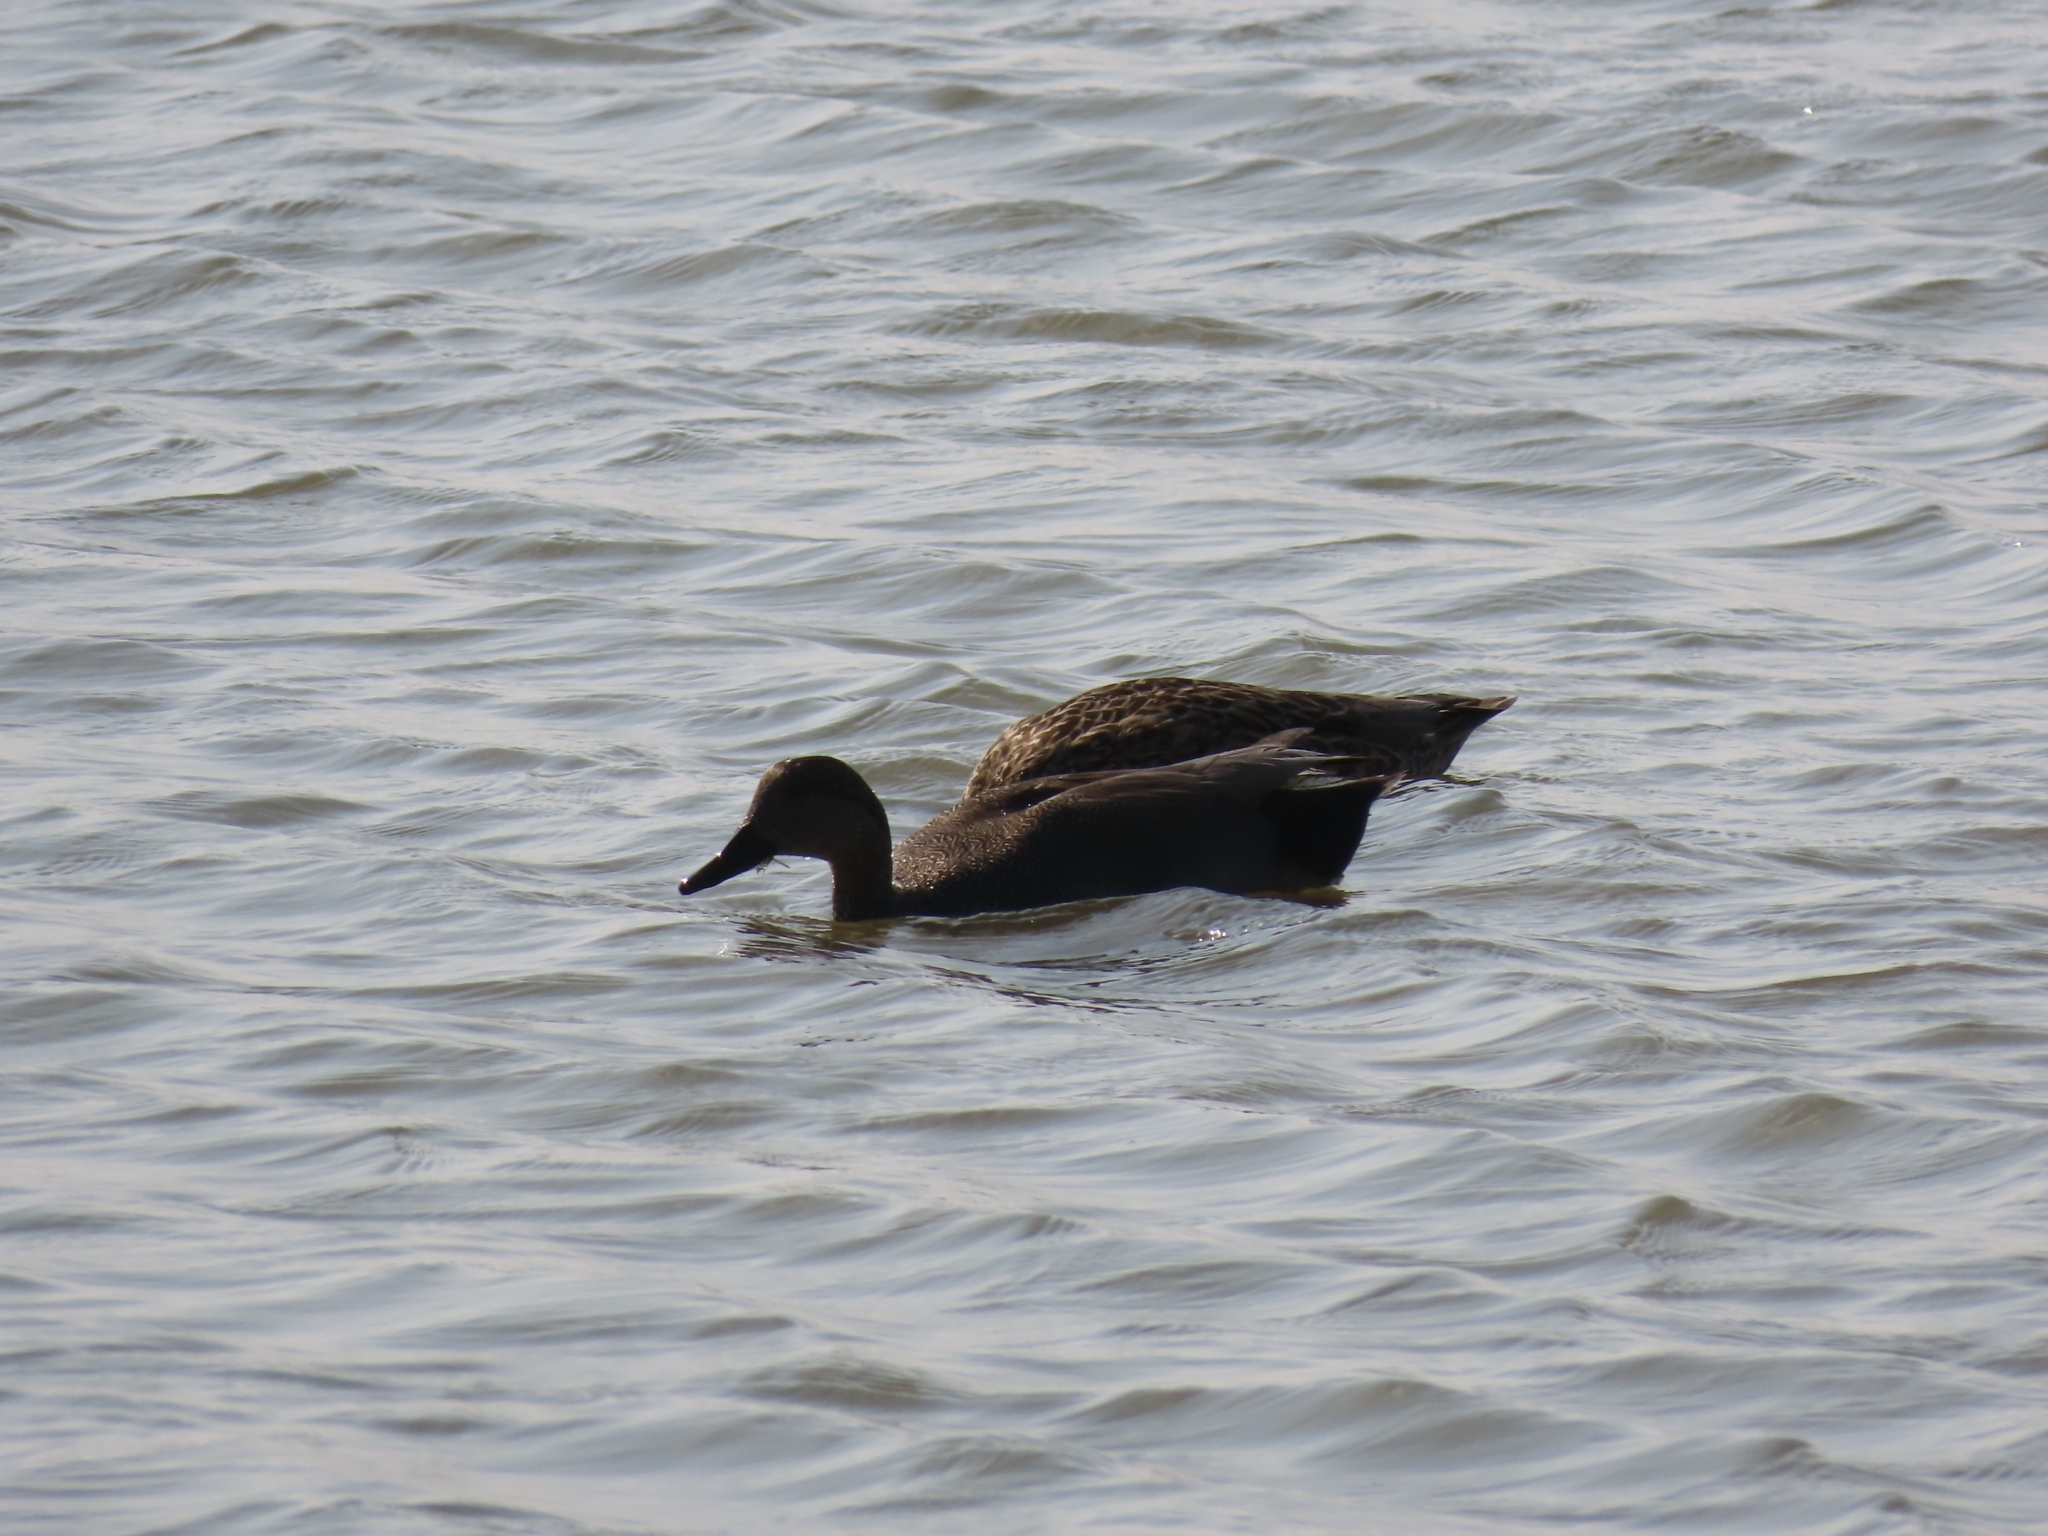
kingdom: Animalia
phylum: Chordata
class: Aves
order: Anseriformes
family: Anatidae
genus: Mareca
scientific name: Mareca strepera
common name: Gadwall
